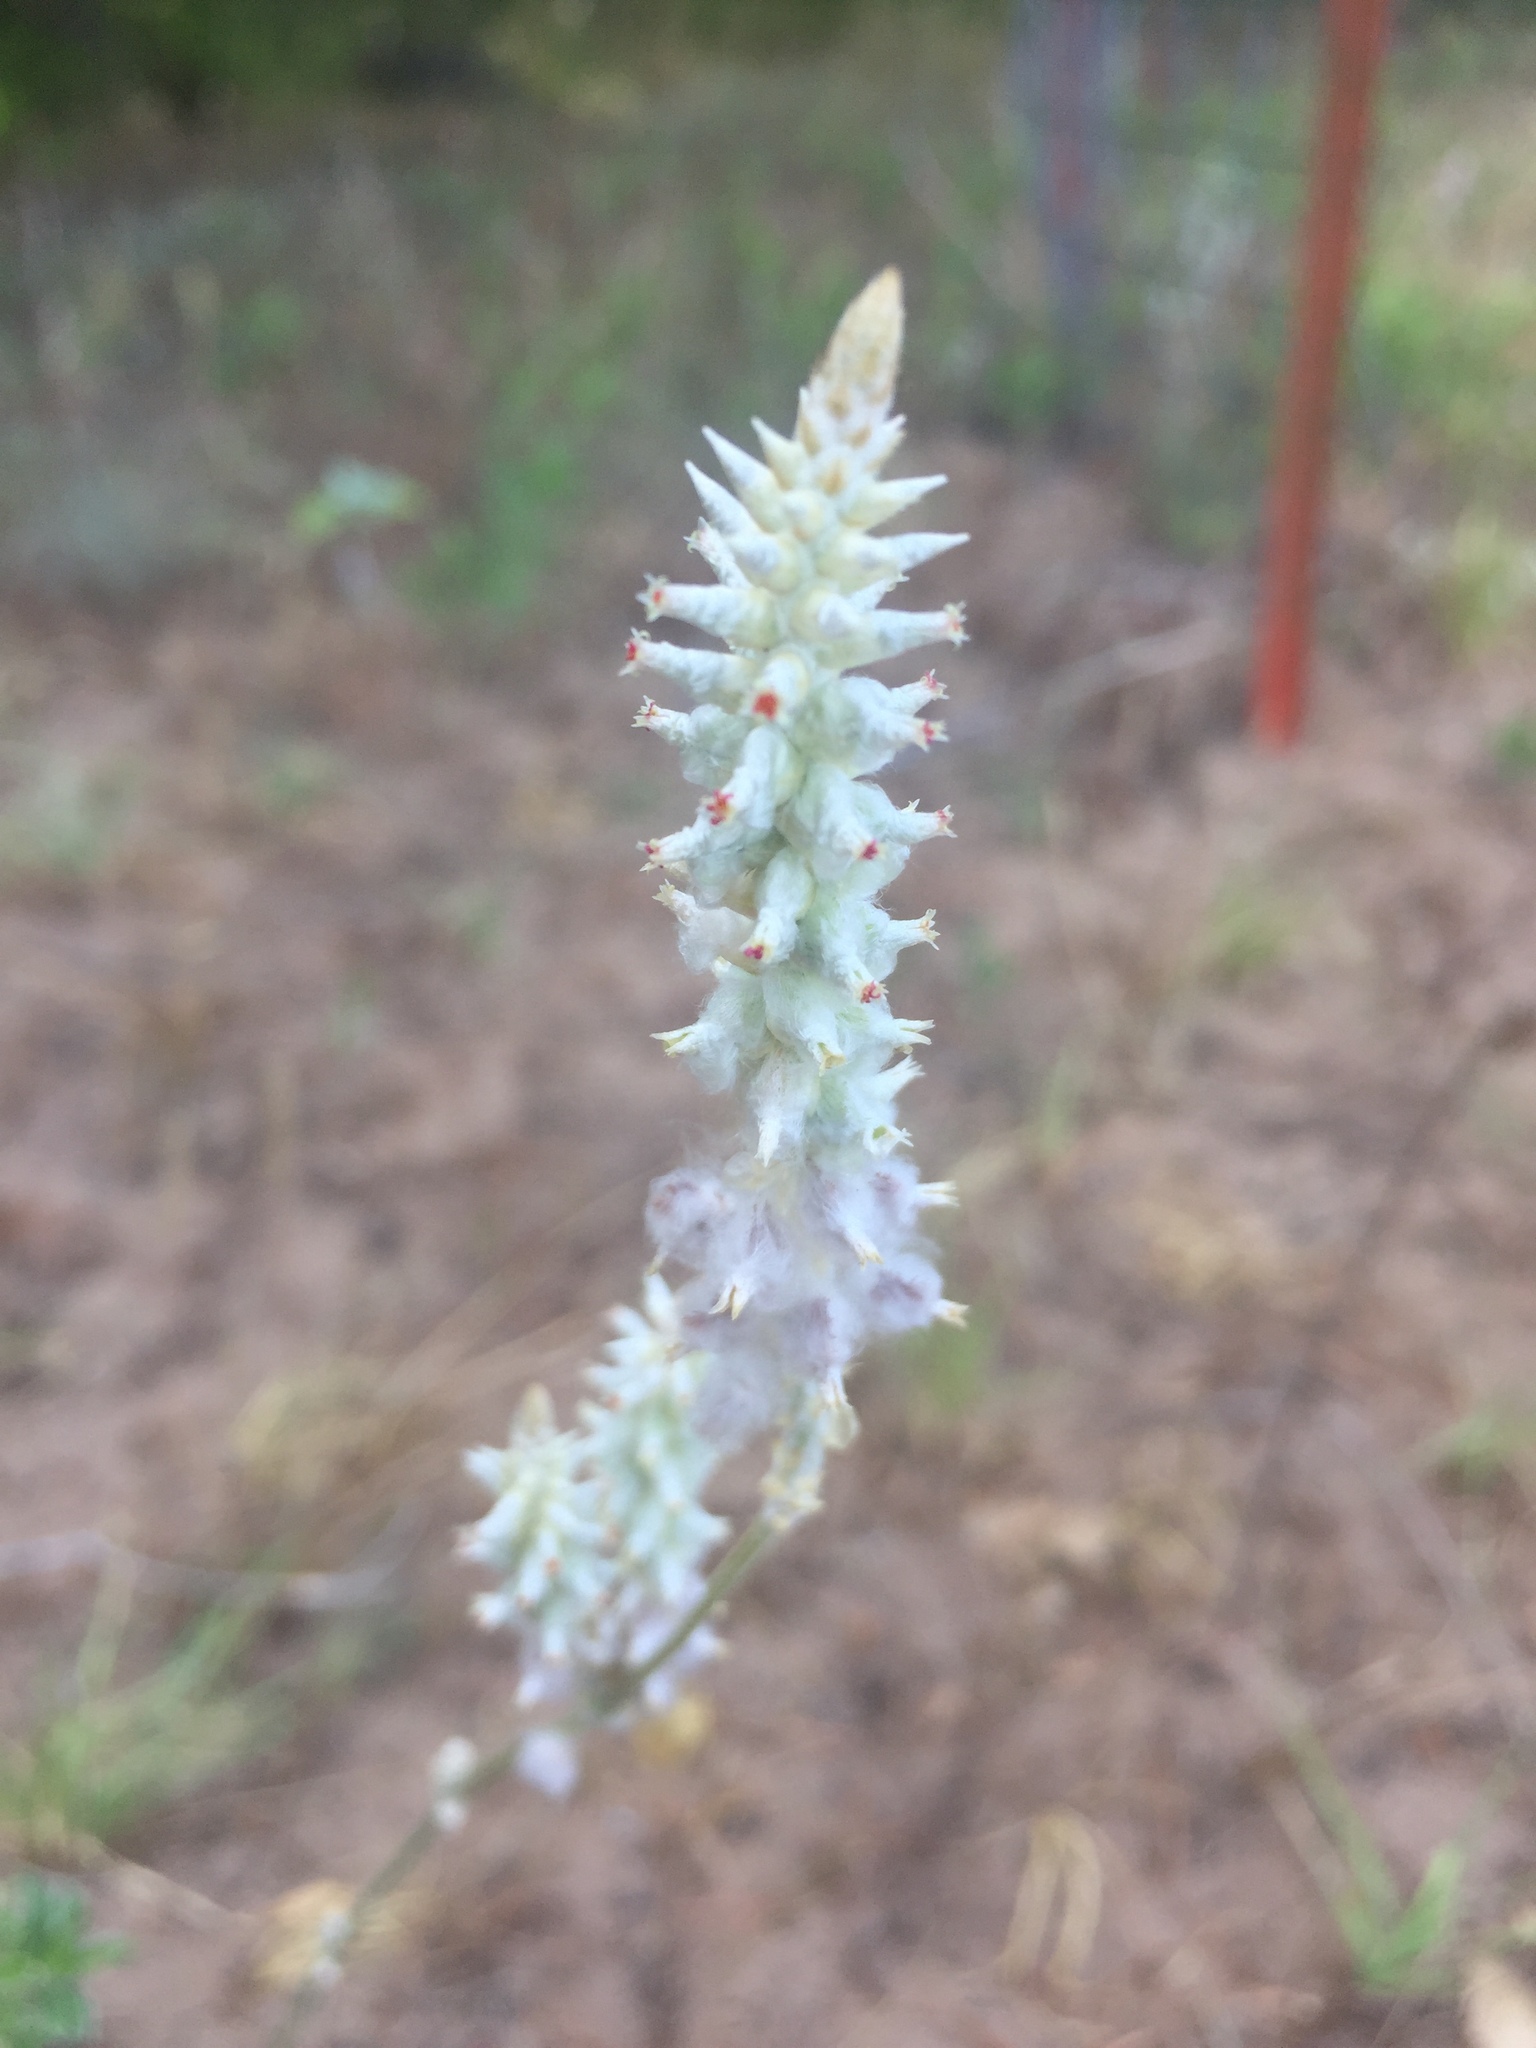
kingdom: Plantae
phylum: Tracheophyta
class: Magnoliopsida
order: Caryophyllales
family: Amaranthaceae
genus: Froelichia
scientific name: Froelichia floridana
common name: Florida snake-cotton
